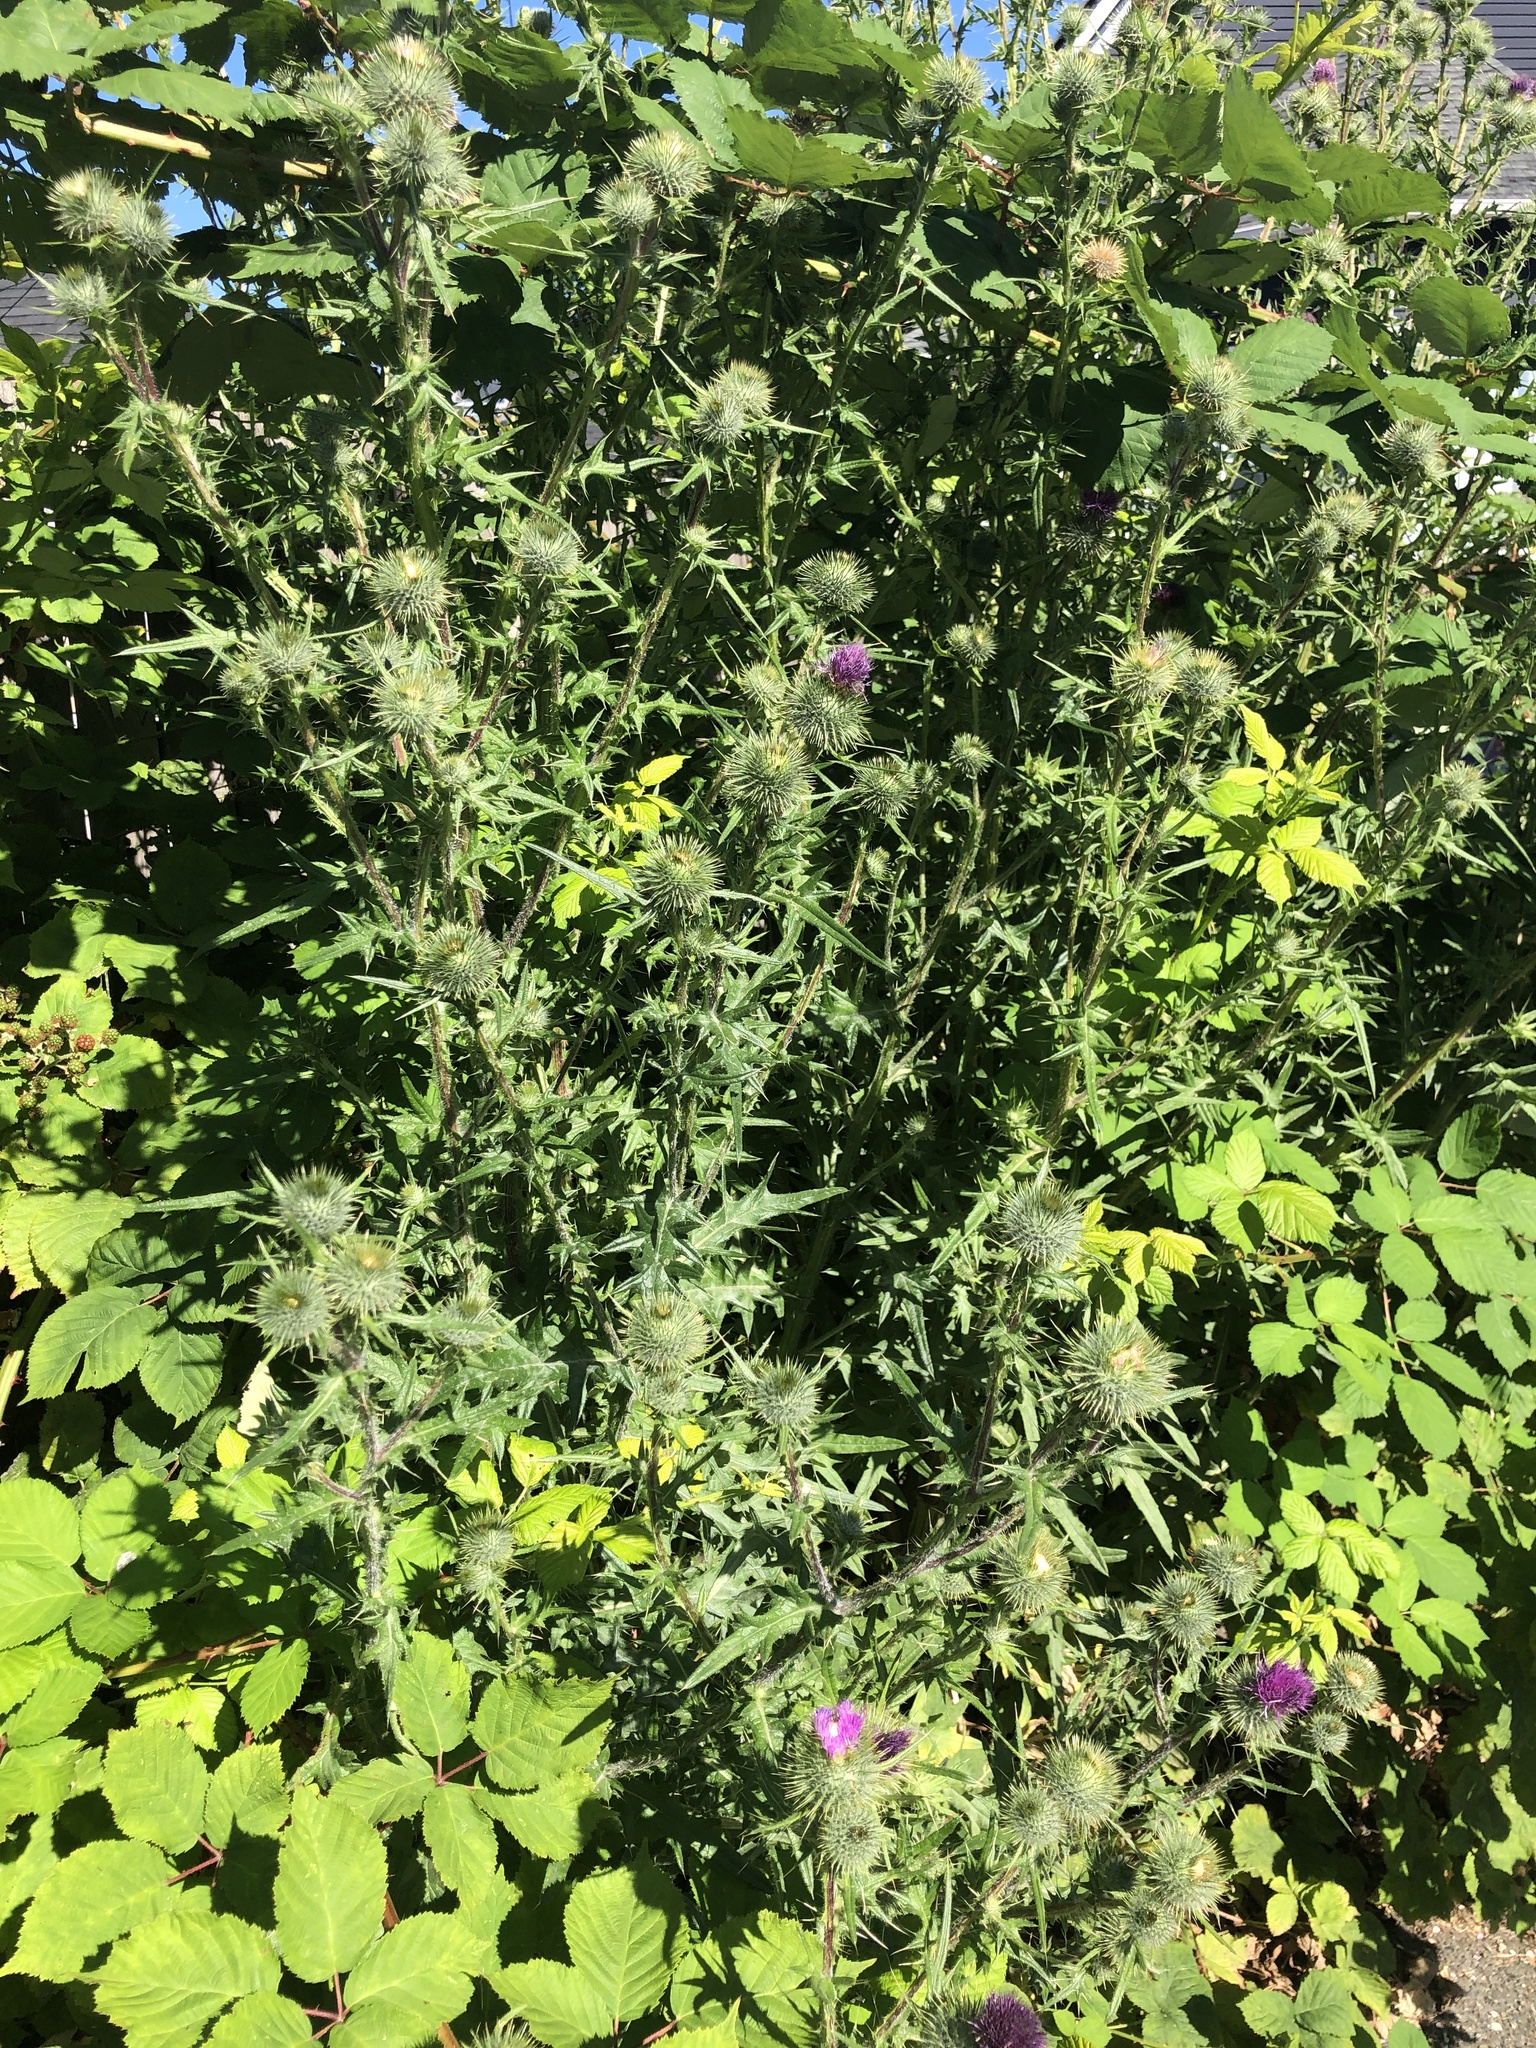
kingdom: Plantae
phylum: Tracheophyta
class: Magnoliopsida
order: Asterales
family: Asteraceae
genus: Cirsium
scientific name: Cirsium vulgare
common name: Bull thistle
